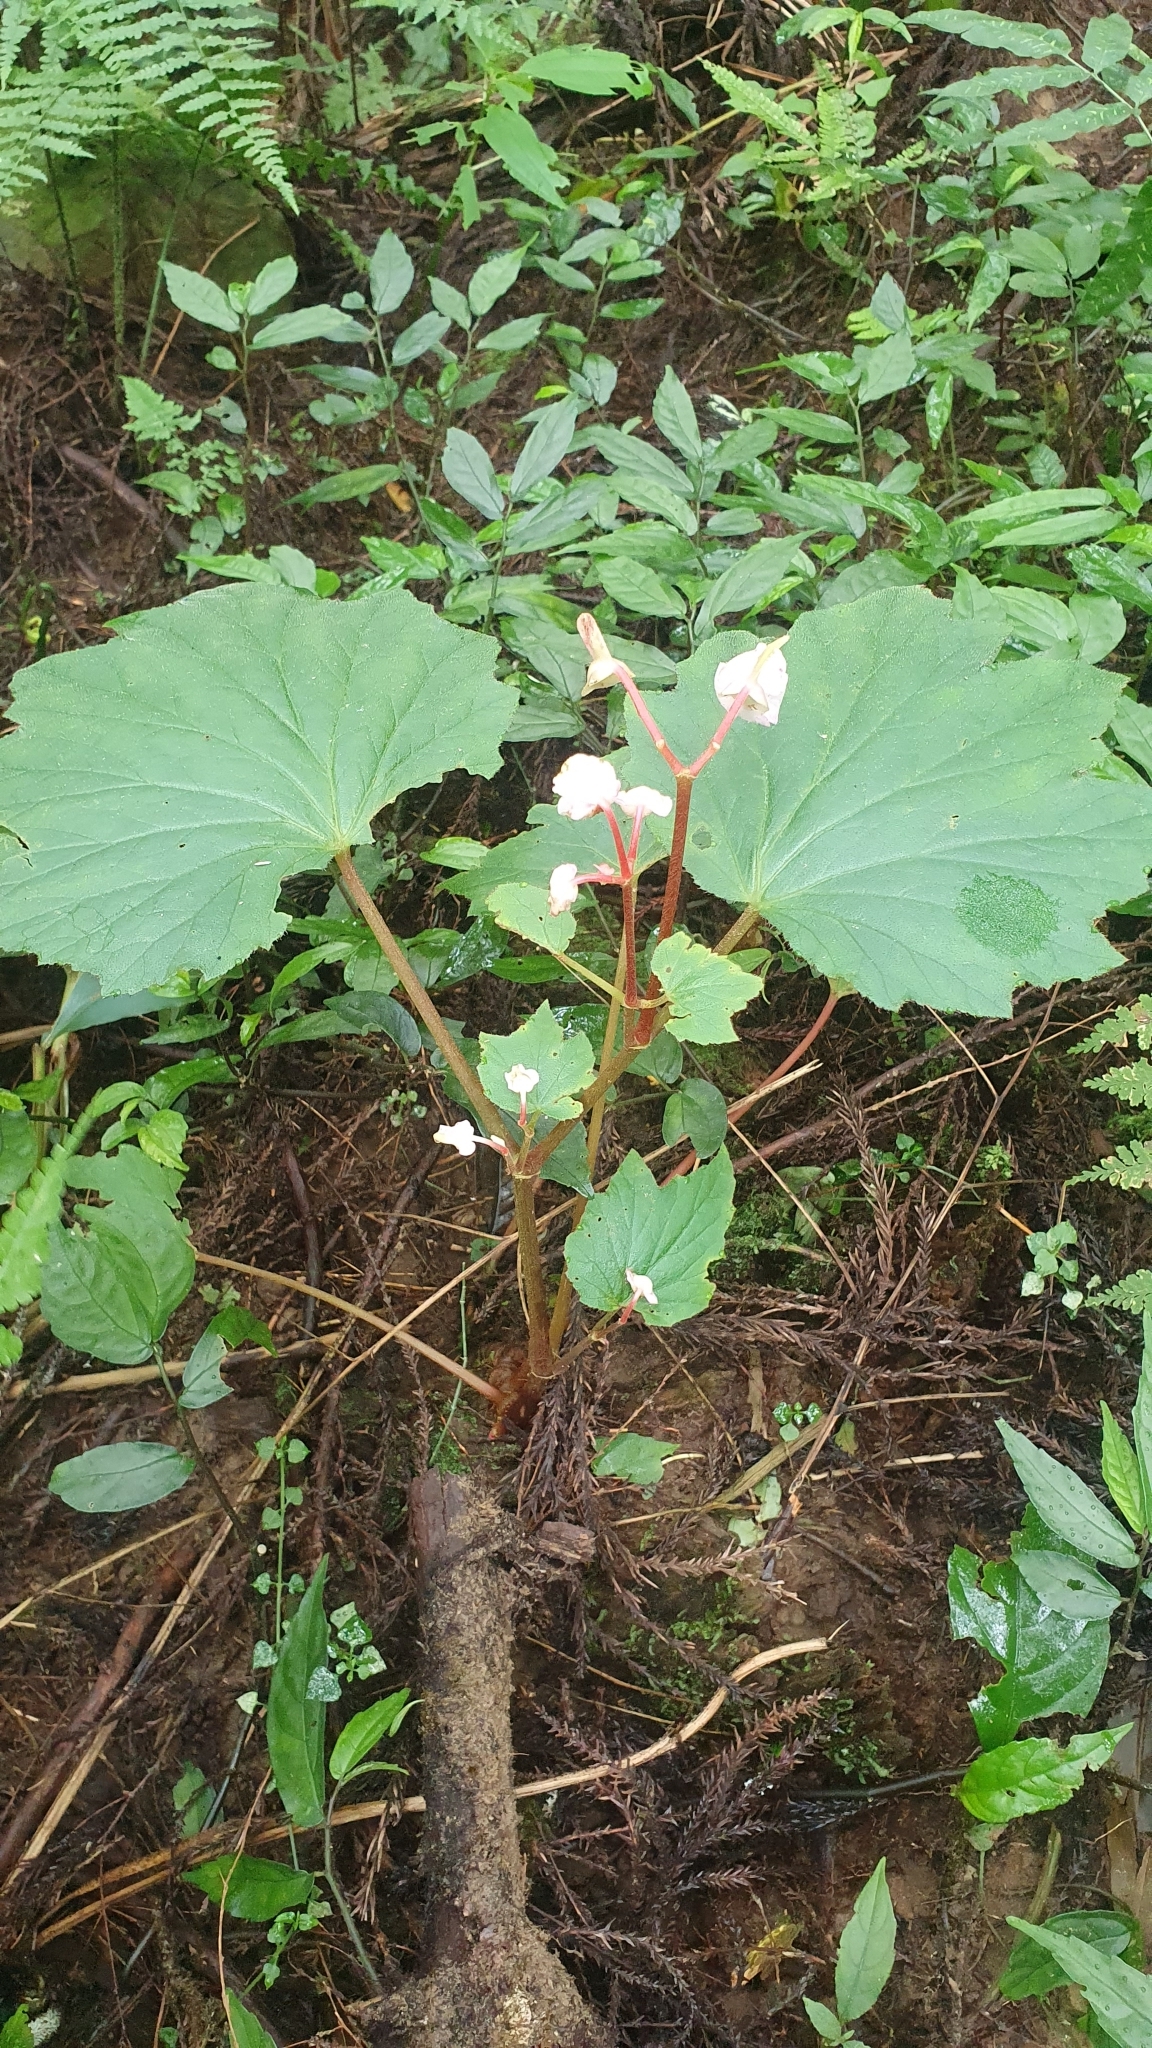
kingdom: Plantae
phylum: Tracheophyta
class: Magnoliopsida
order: Cucurbitales
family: Begoniaceae
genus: Begonia
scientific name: Begonia palmata
